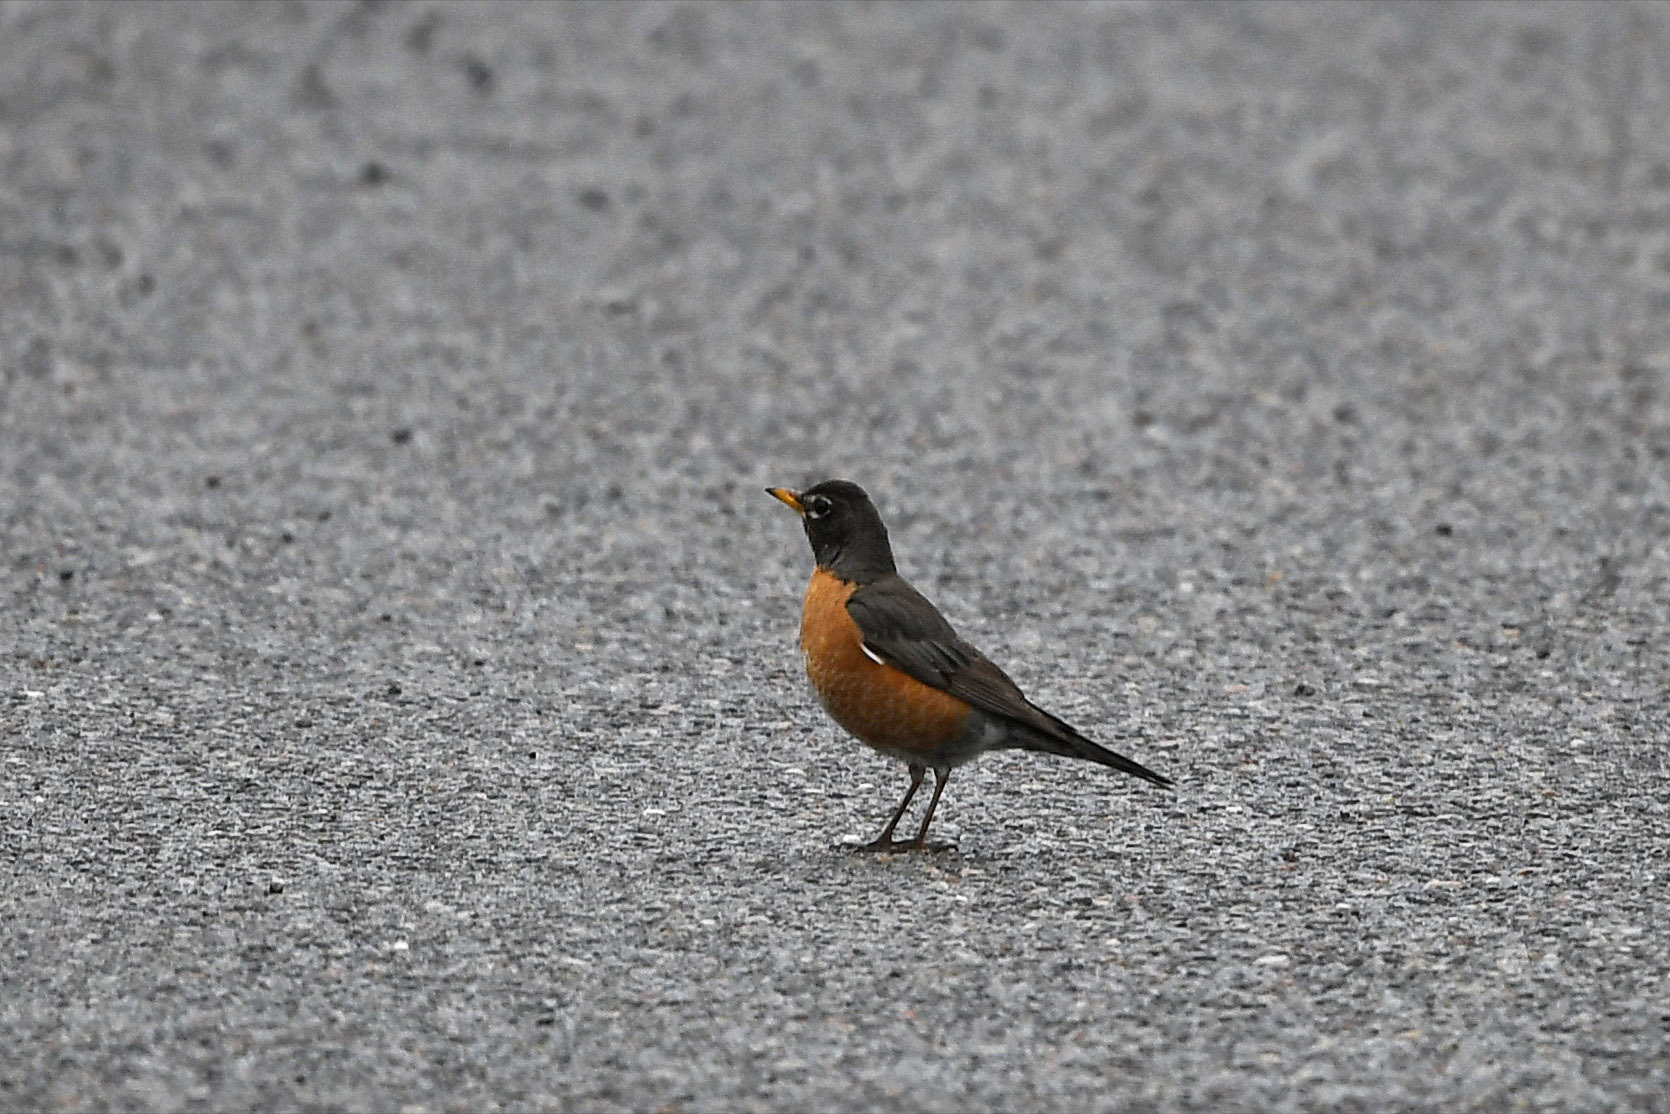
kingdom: Animalia
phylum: Chordata
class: Aves
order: Passeriformes
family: Turdidae
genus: Turdus
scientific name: Turdus migratorius
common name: American robin
